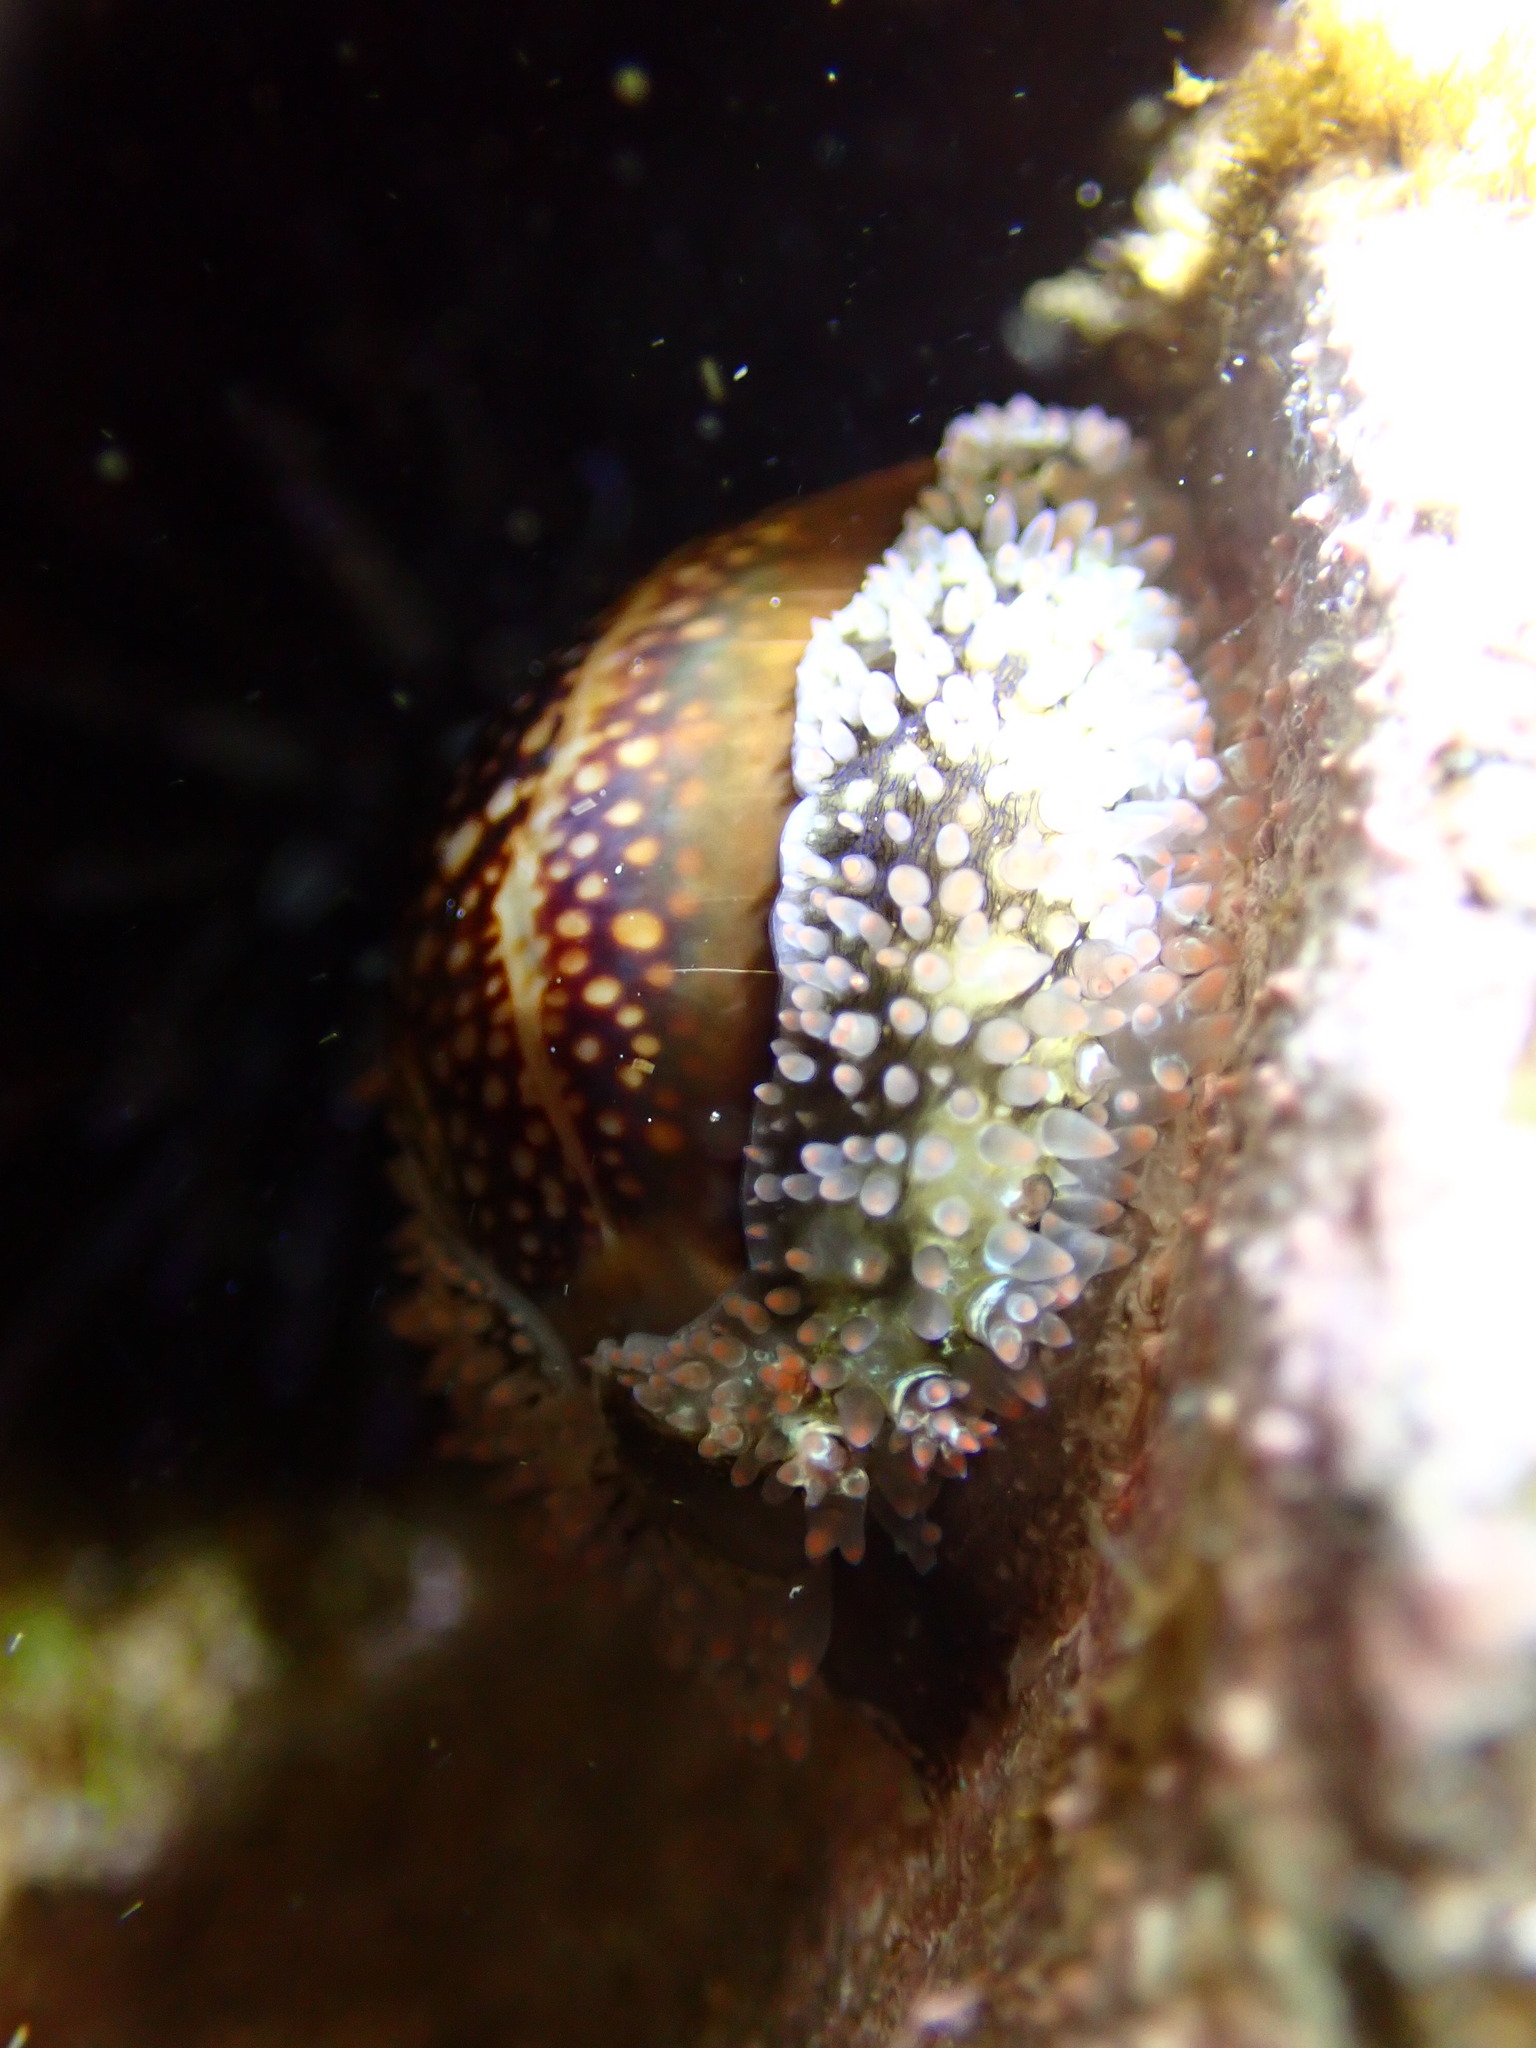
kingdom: Animalia
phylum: Mollusca
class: Gastropoda
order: Littorinimorpha
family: Cypraeidae
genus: Monetaria
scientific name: Monetaria caputophidii
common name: Snake's head cowry
